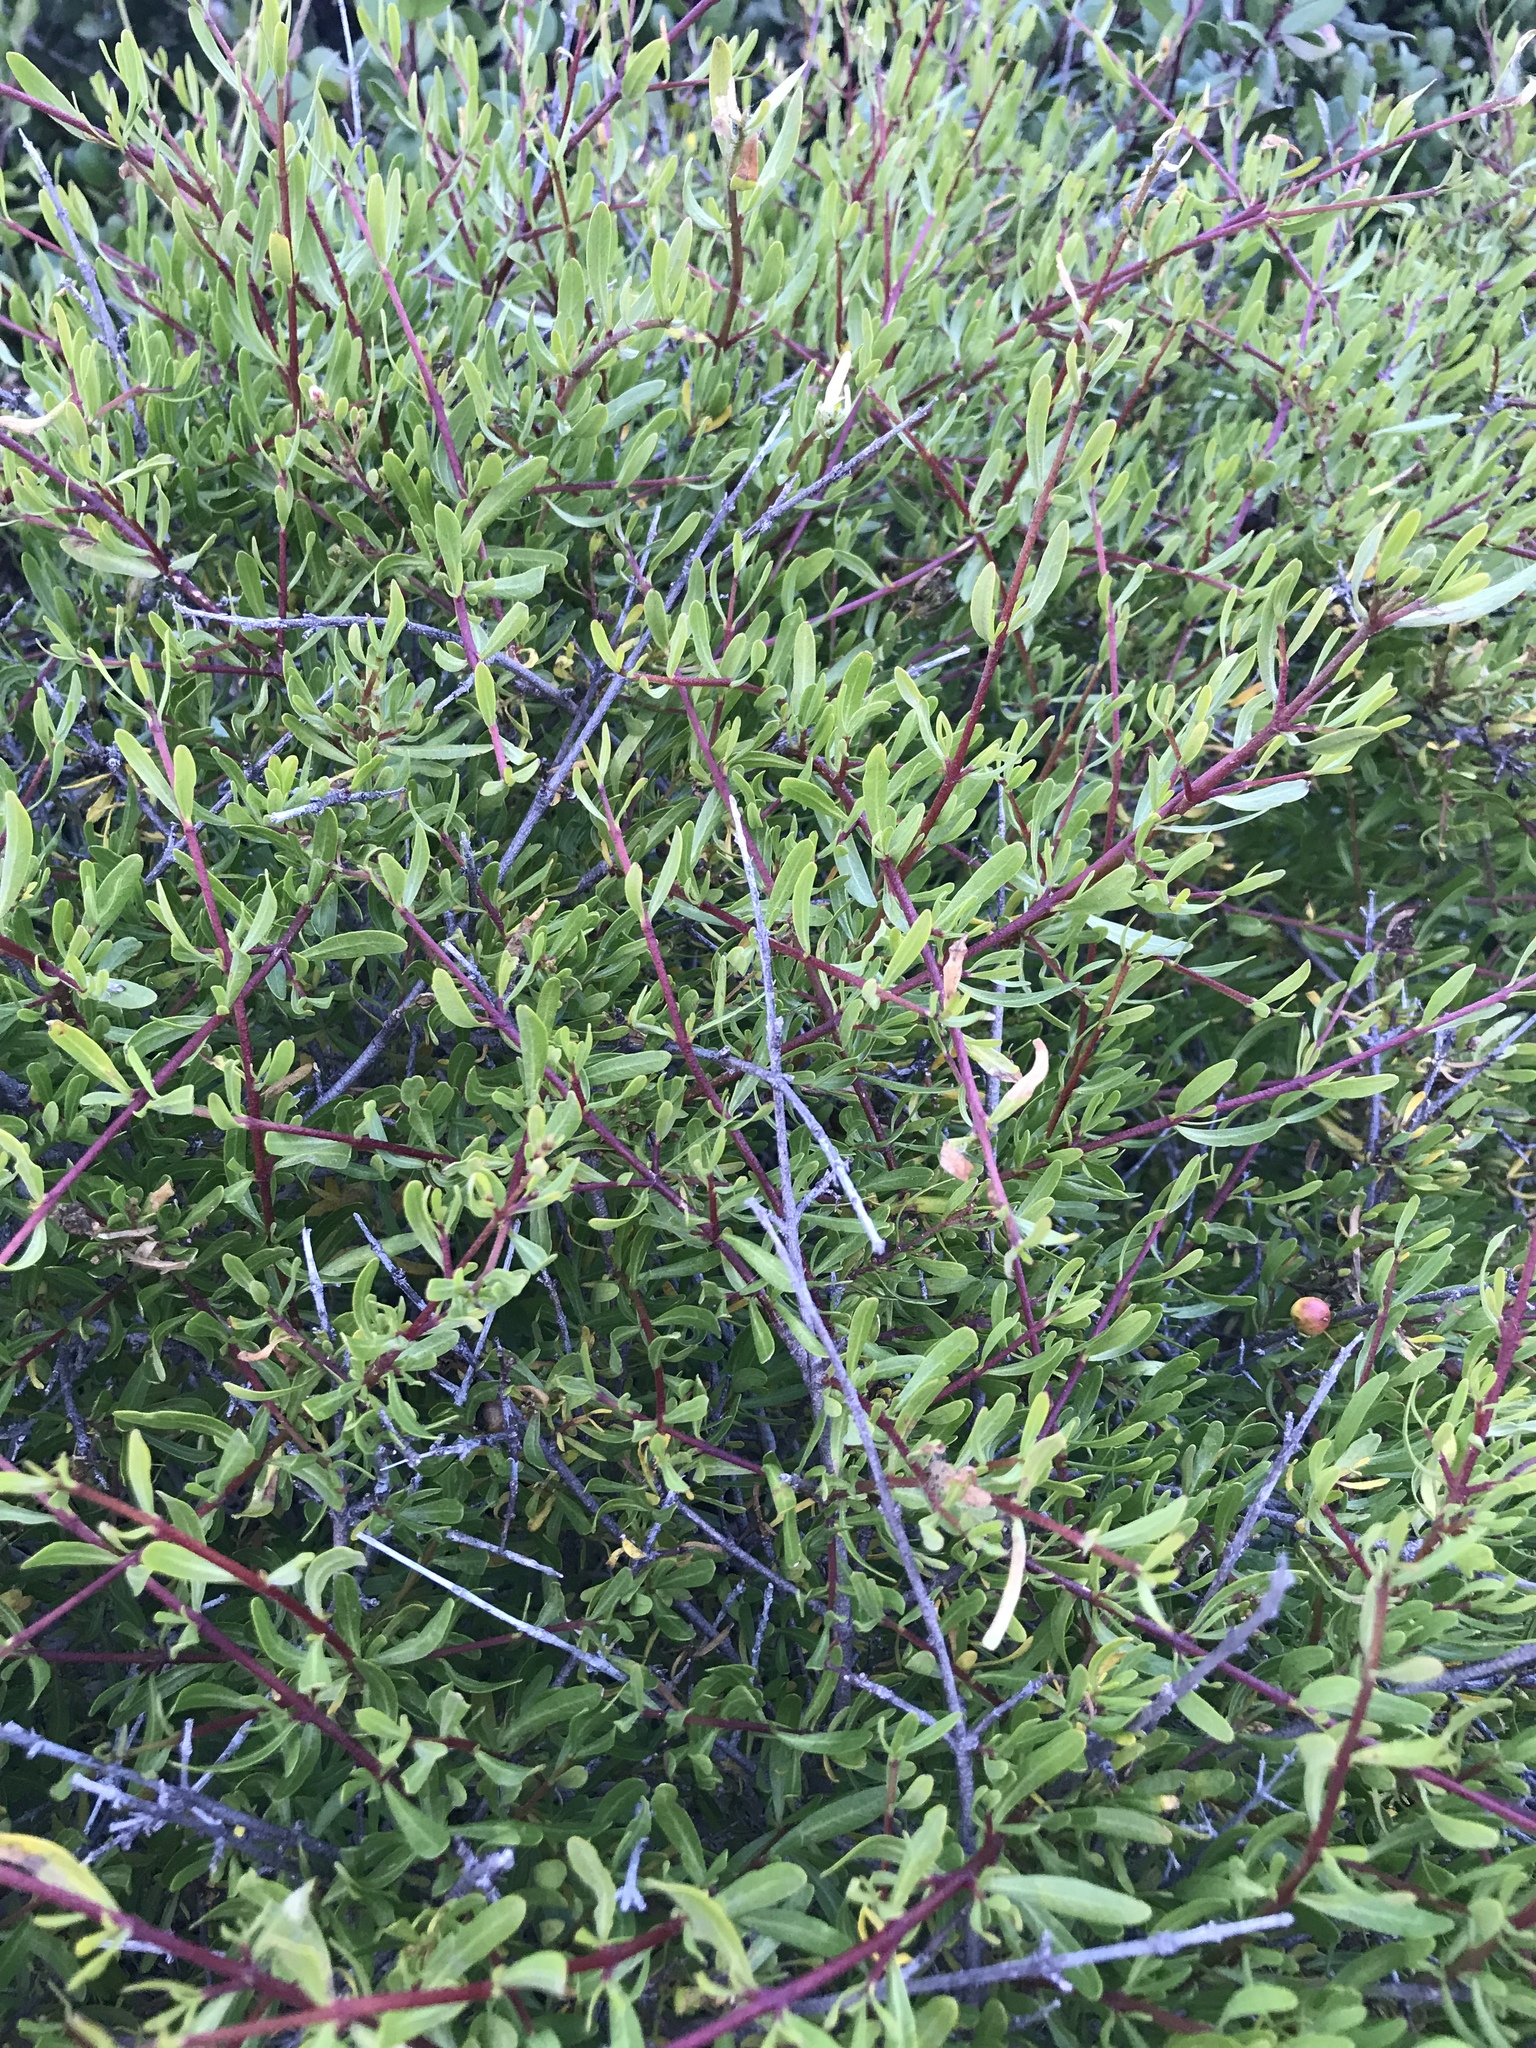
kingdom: Plantae
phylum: Tracheophyta
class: Magnoliopsida
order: Sapindales
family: Rutaceae
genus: Cneoridium
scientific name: Cneoridium dumosum
